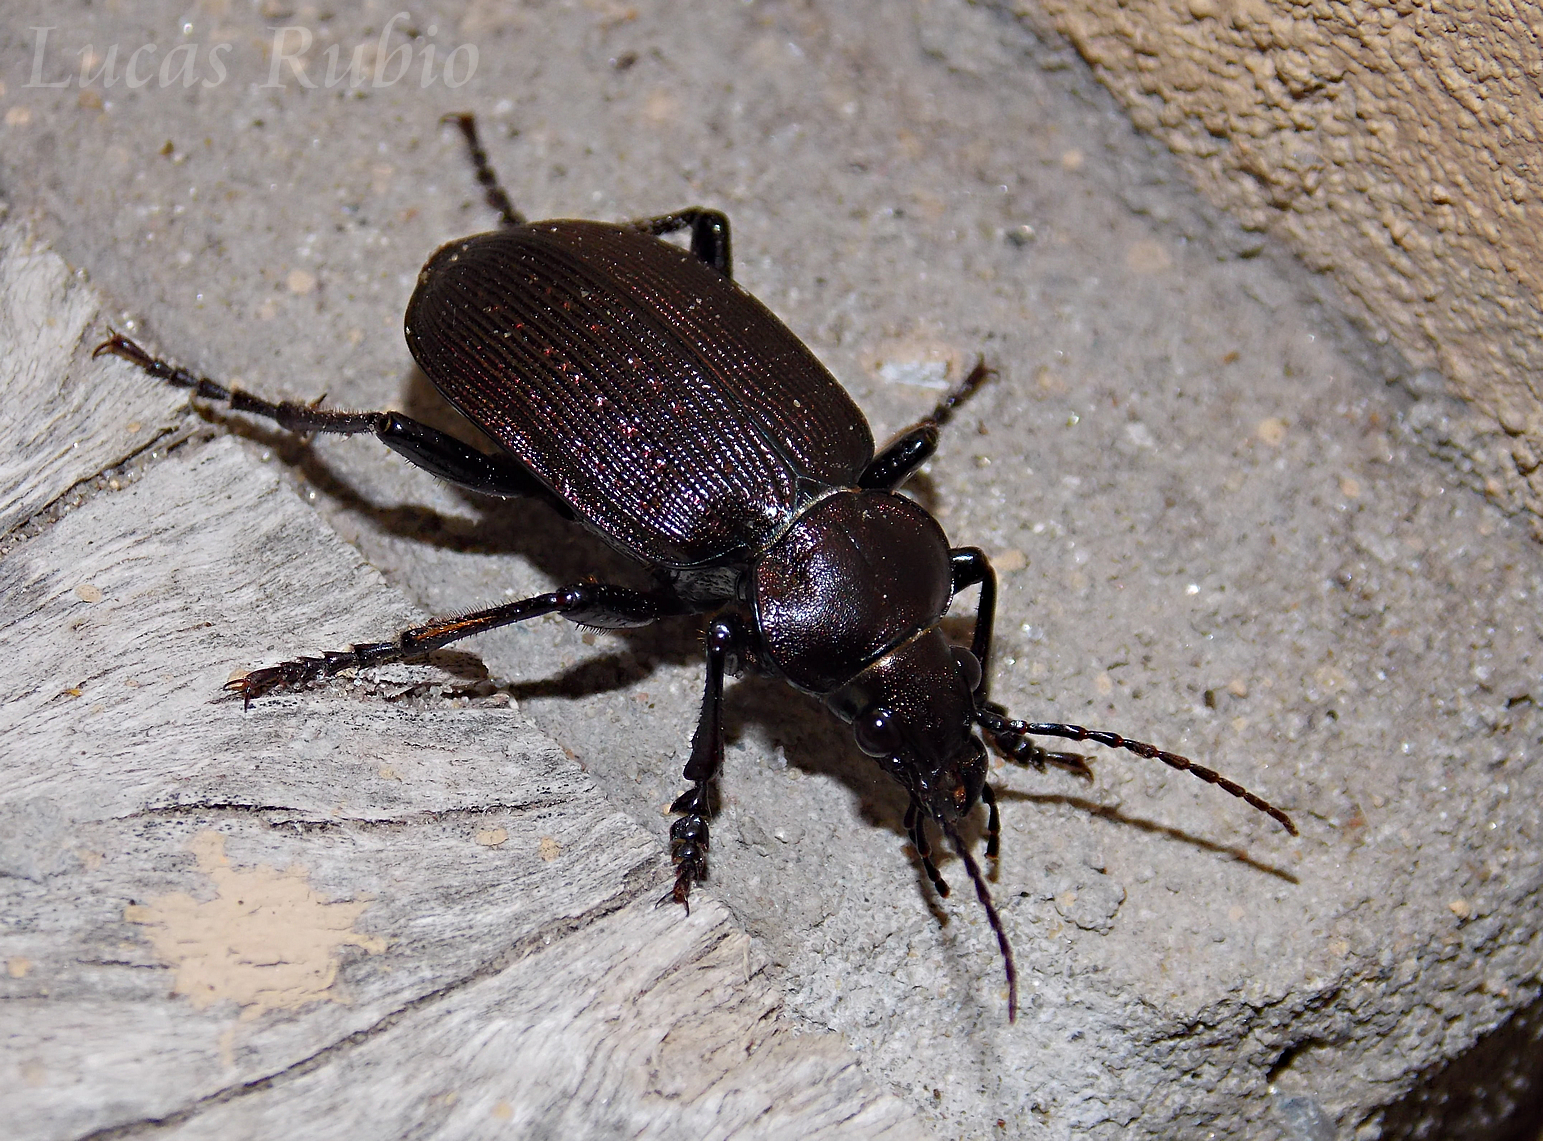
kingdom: Animalia
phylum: Arthropoda
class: Insecta
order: Coleoptera
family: Carabidae
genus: Calosoma
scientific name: Calosoma argentinense
